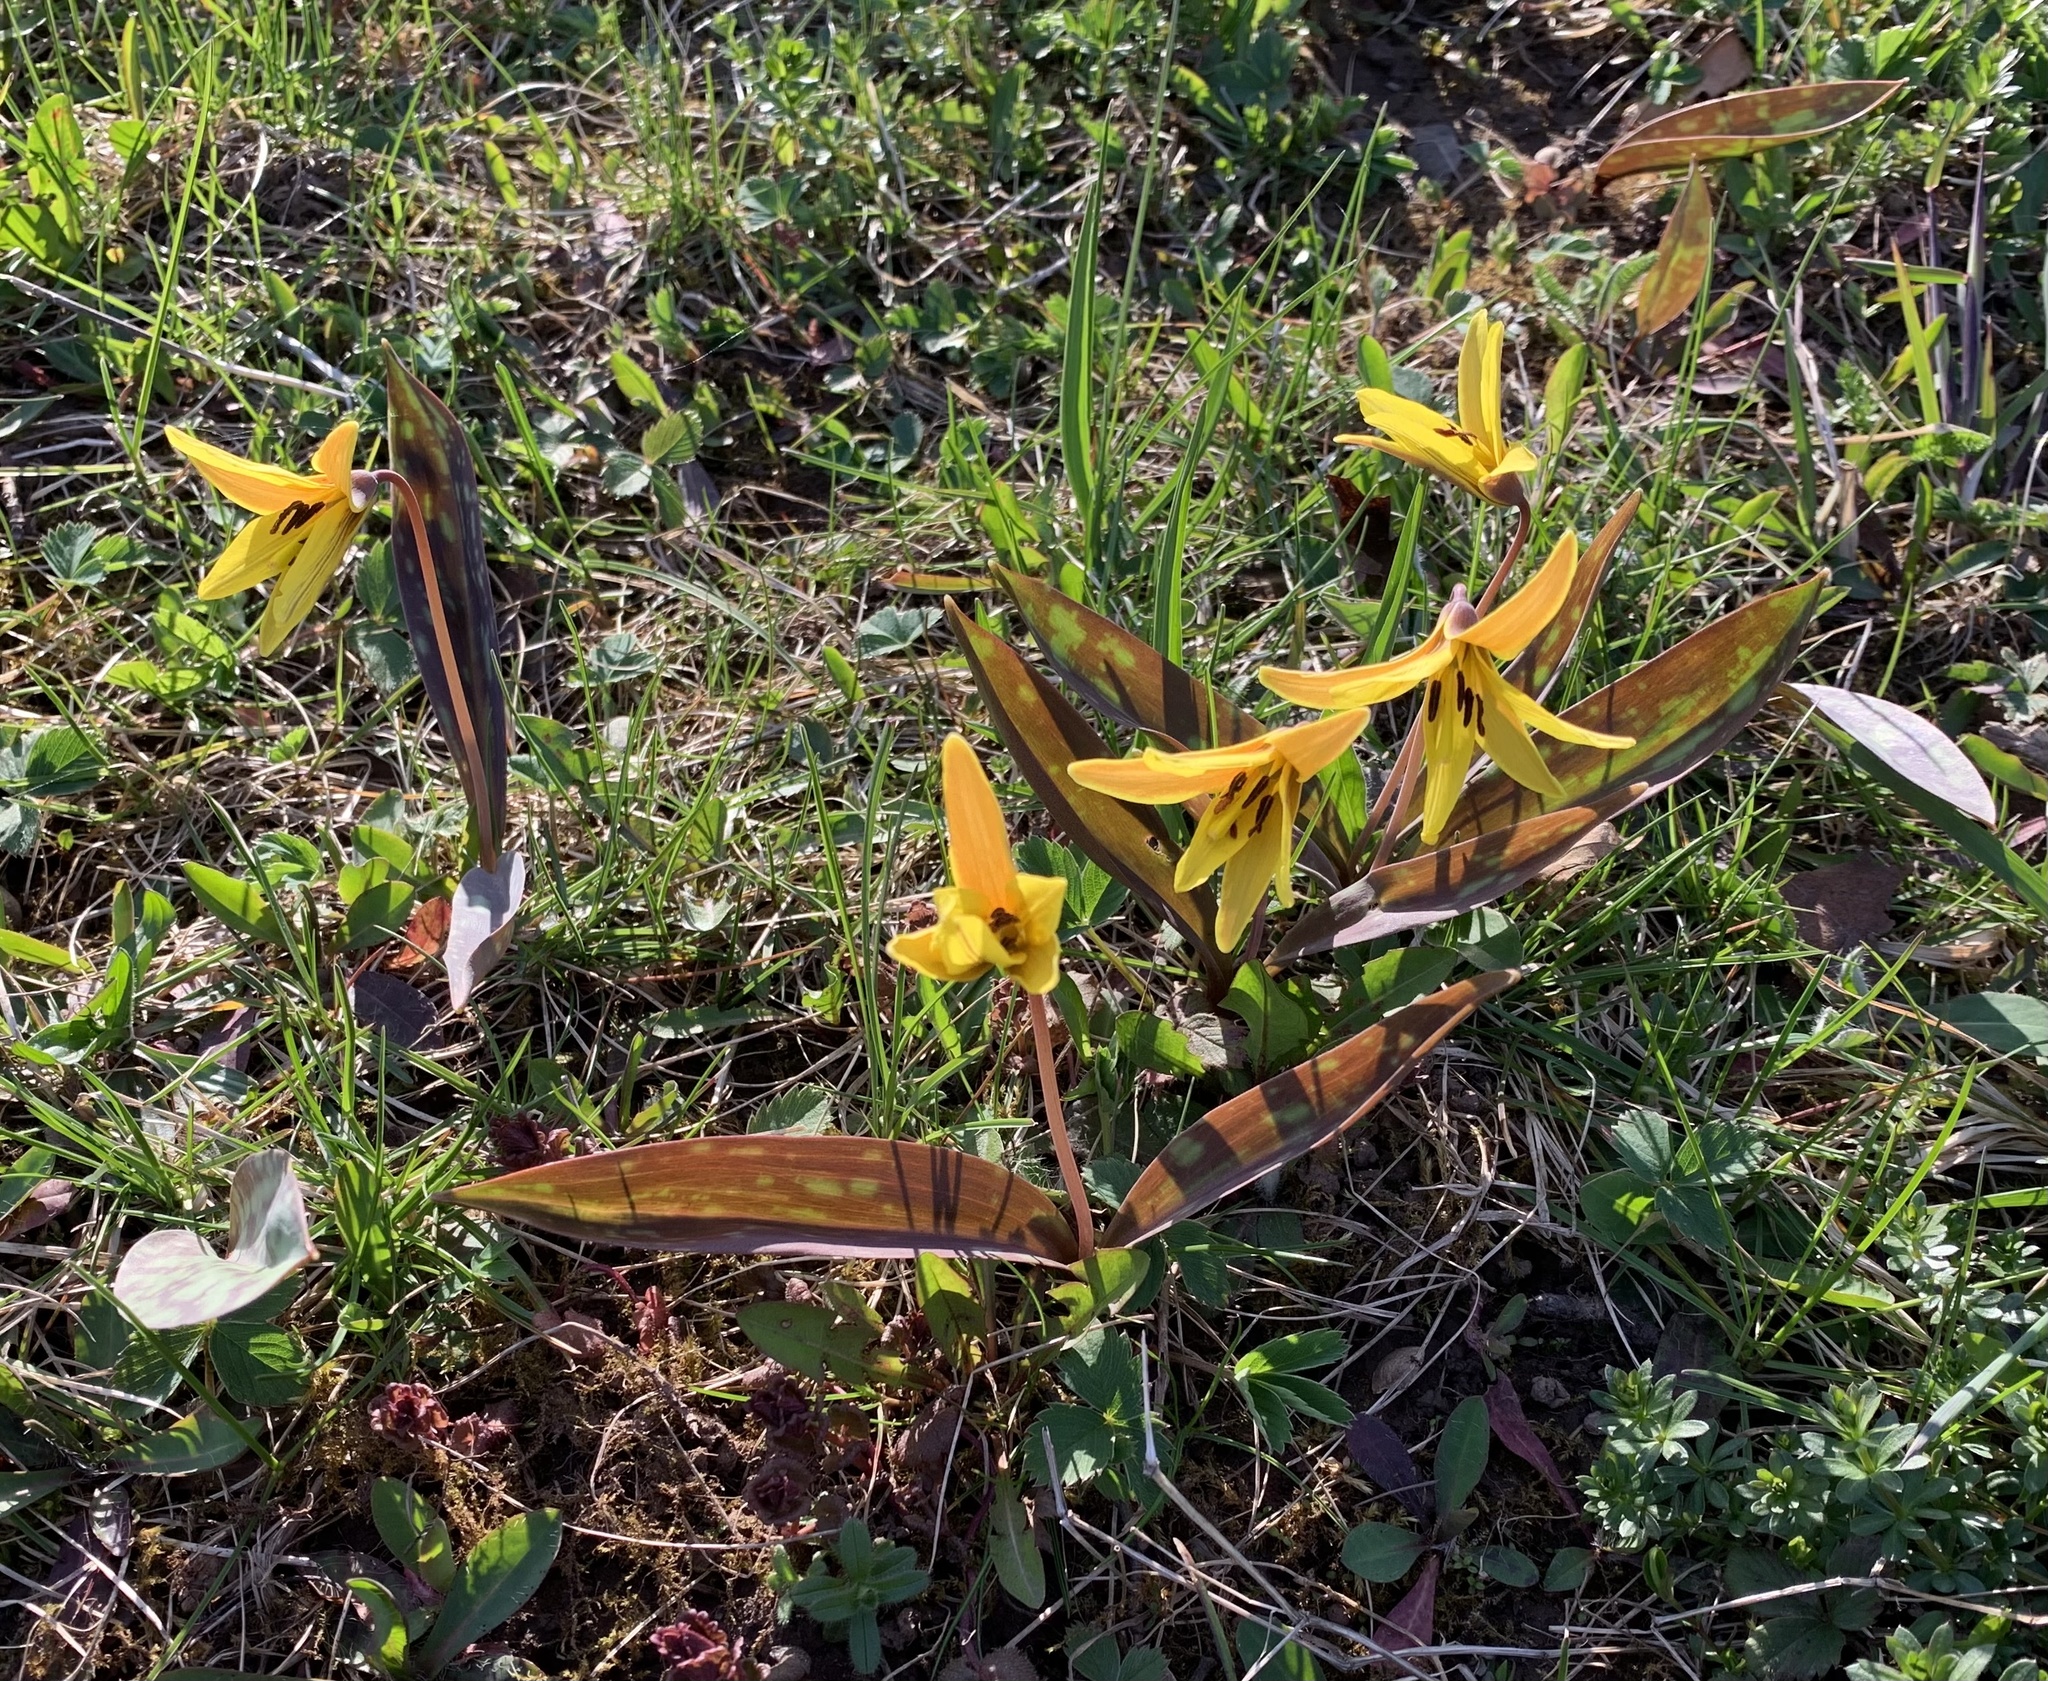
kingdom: Plantae
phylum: Tracheophyta
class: Liliopsida
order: Liliales
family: Liliaceae
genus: Erythronium
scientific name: Erythronium americanum
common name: Yellow adder's-tongue
